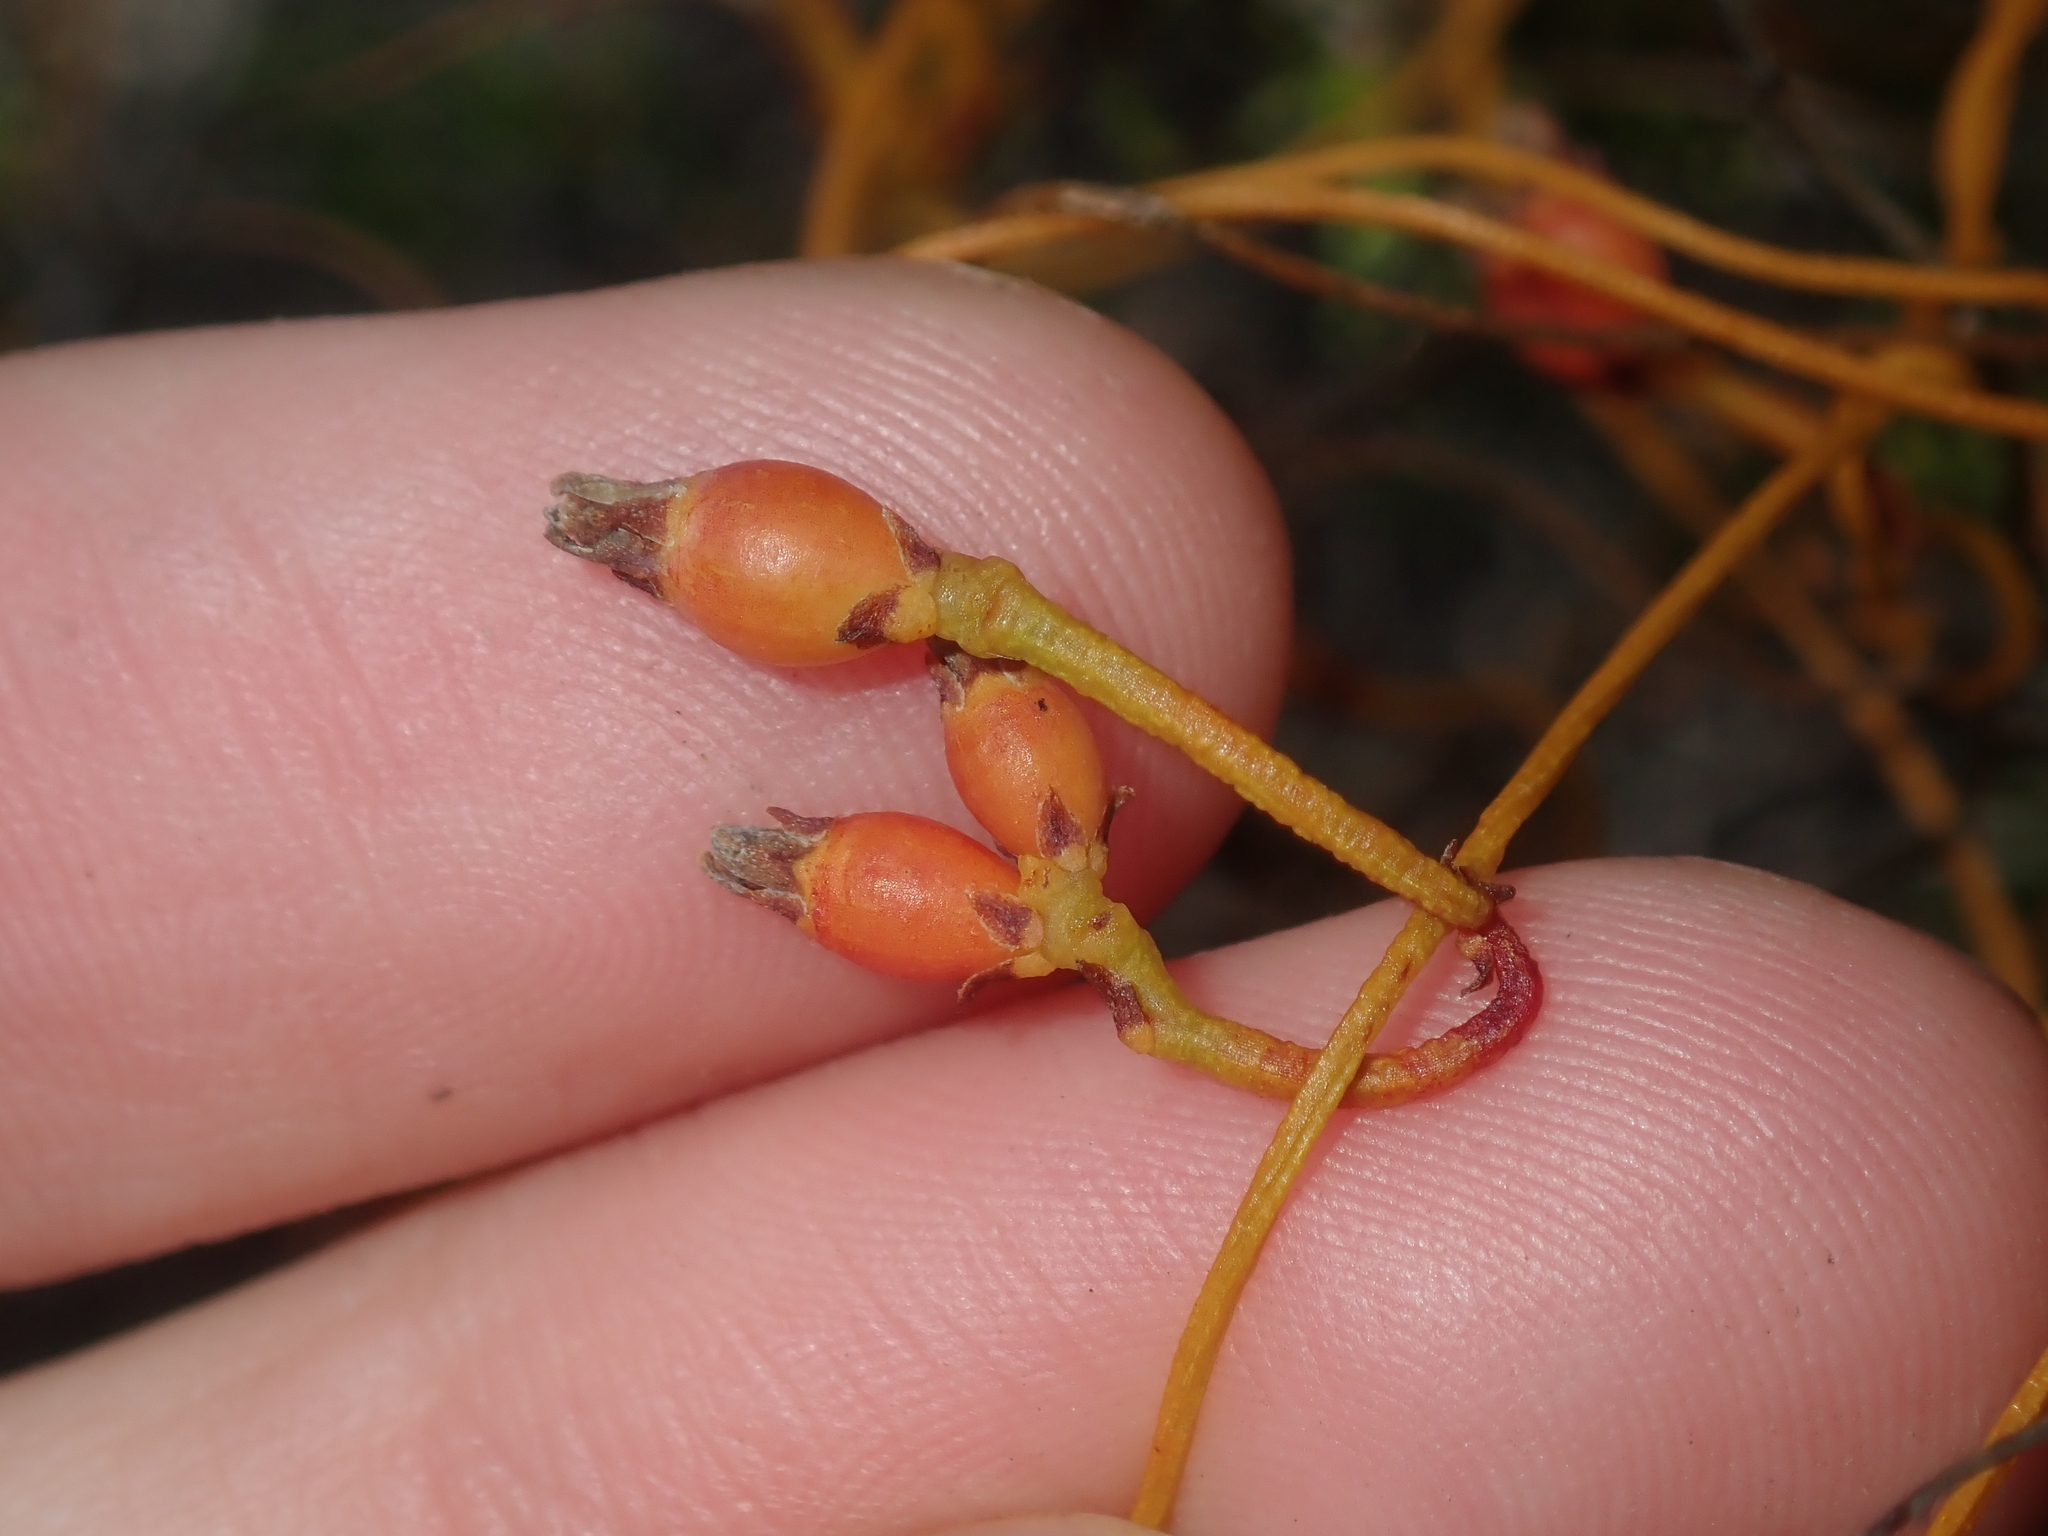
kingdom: Plantae
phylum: Tracheophyta
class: Magnoliopsida
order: Laurales
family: Lauraceae
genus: Cassytha
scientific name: Cassytha glabella
